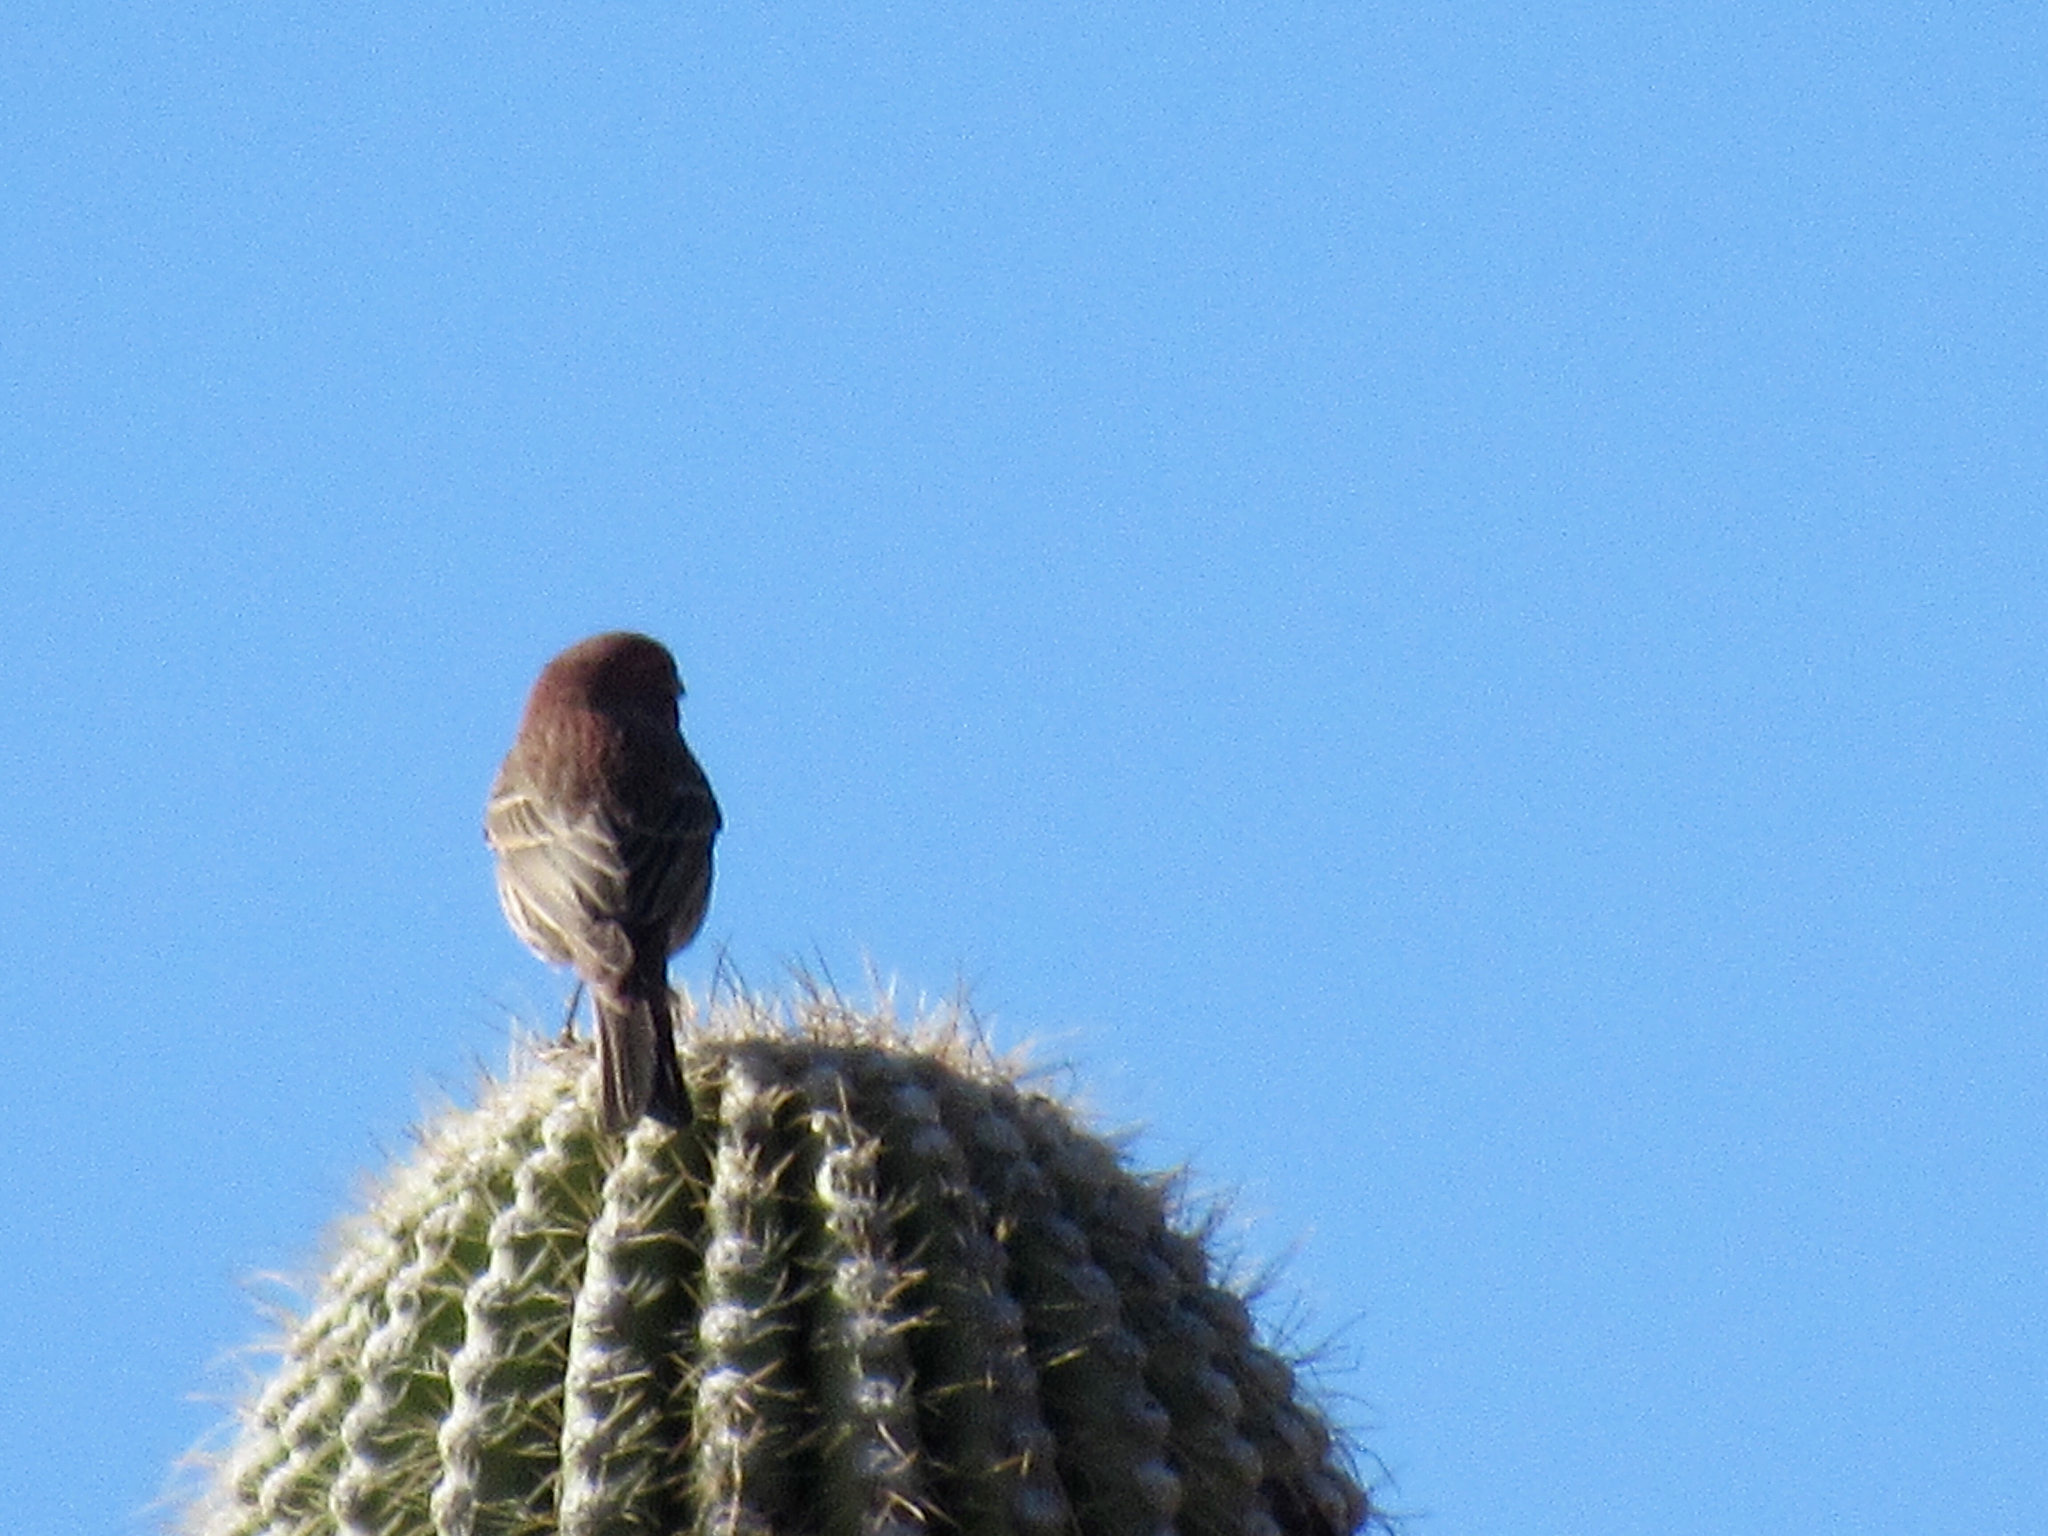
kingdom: Animalia
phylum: Chordata
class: Aves
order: Passeriformes
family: Fringillidae
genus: Haemorhous
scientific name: Haemorhous mexicanus
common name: House finch
